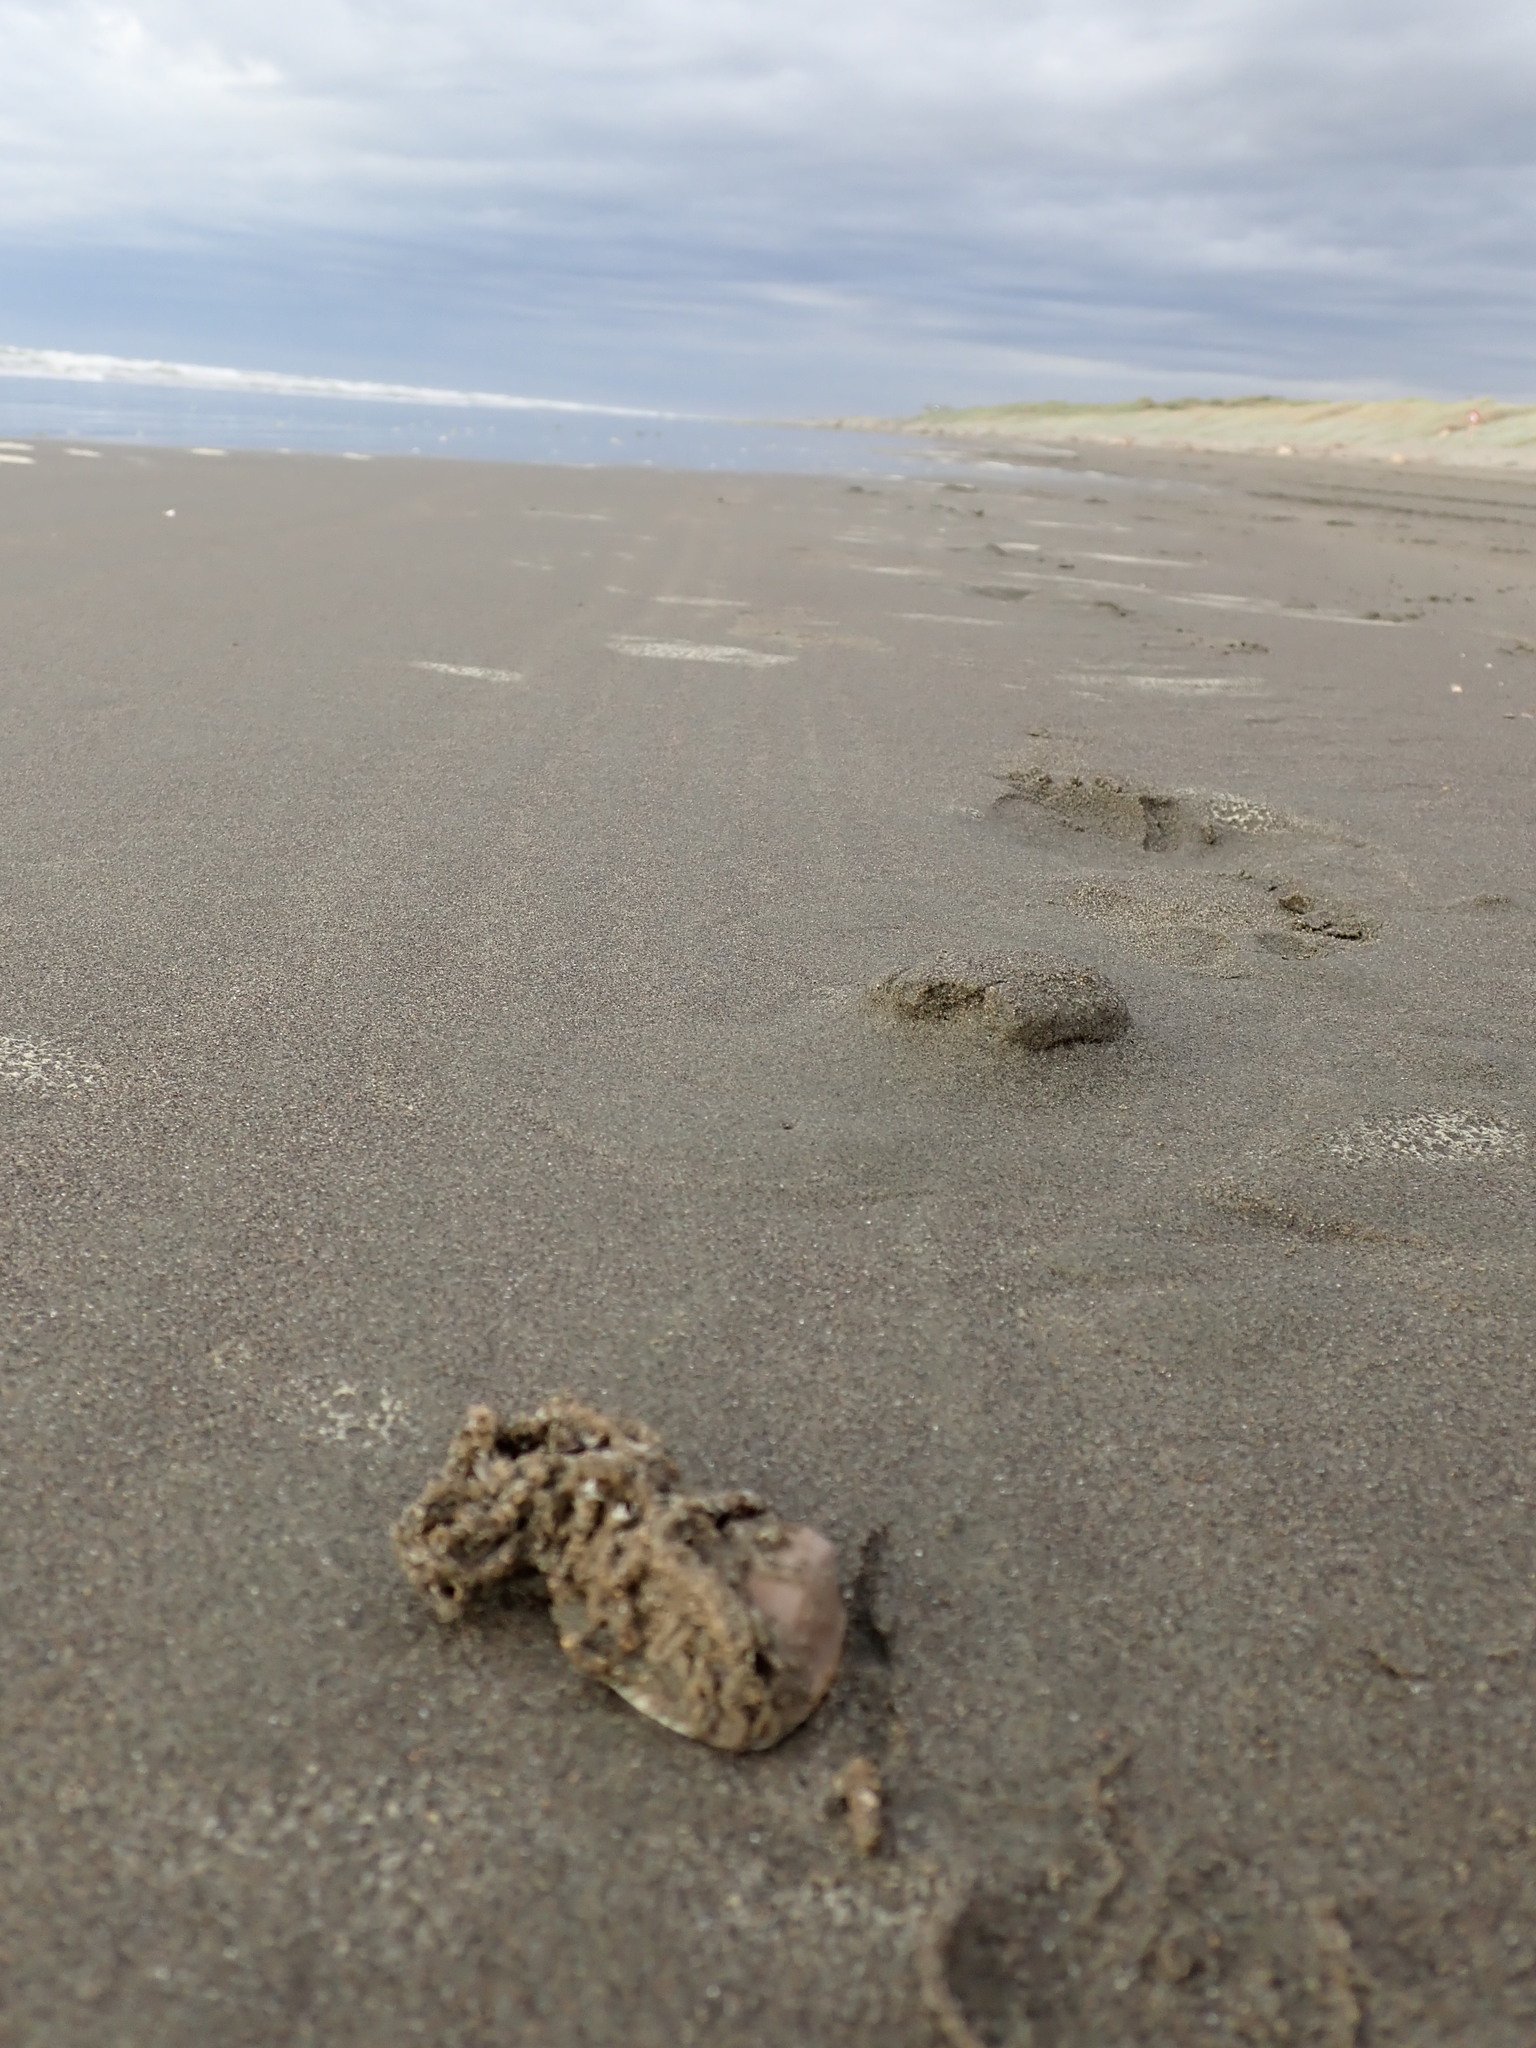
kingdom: Animalia
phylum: Annelida
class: Polychaeta
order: Sabellida
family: Sabellariidae
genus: Neosabellaria
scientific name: Neosabellaria kaiparaensis
